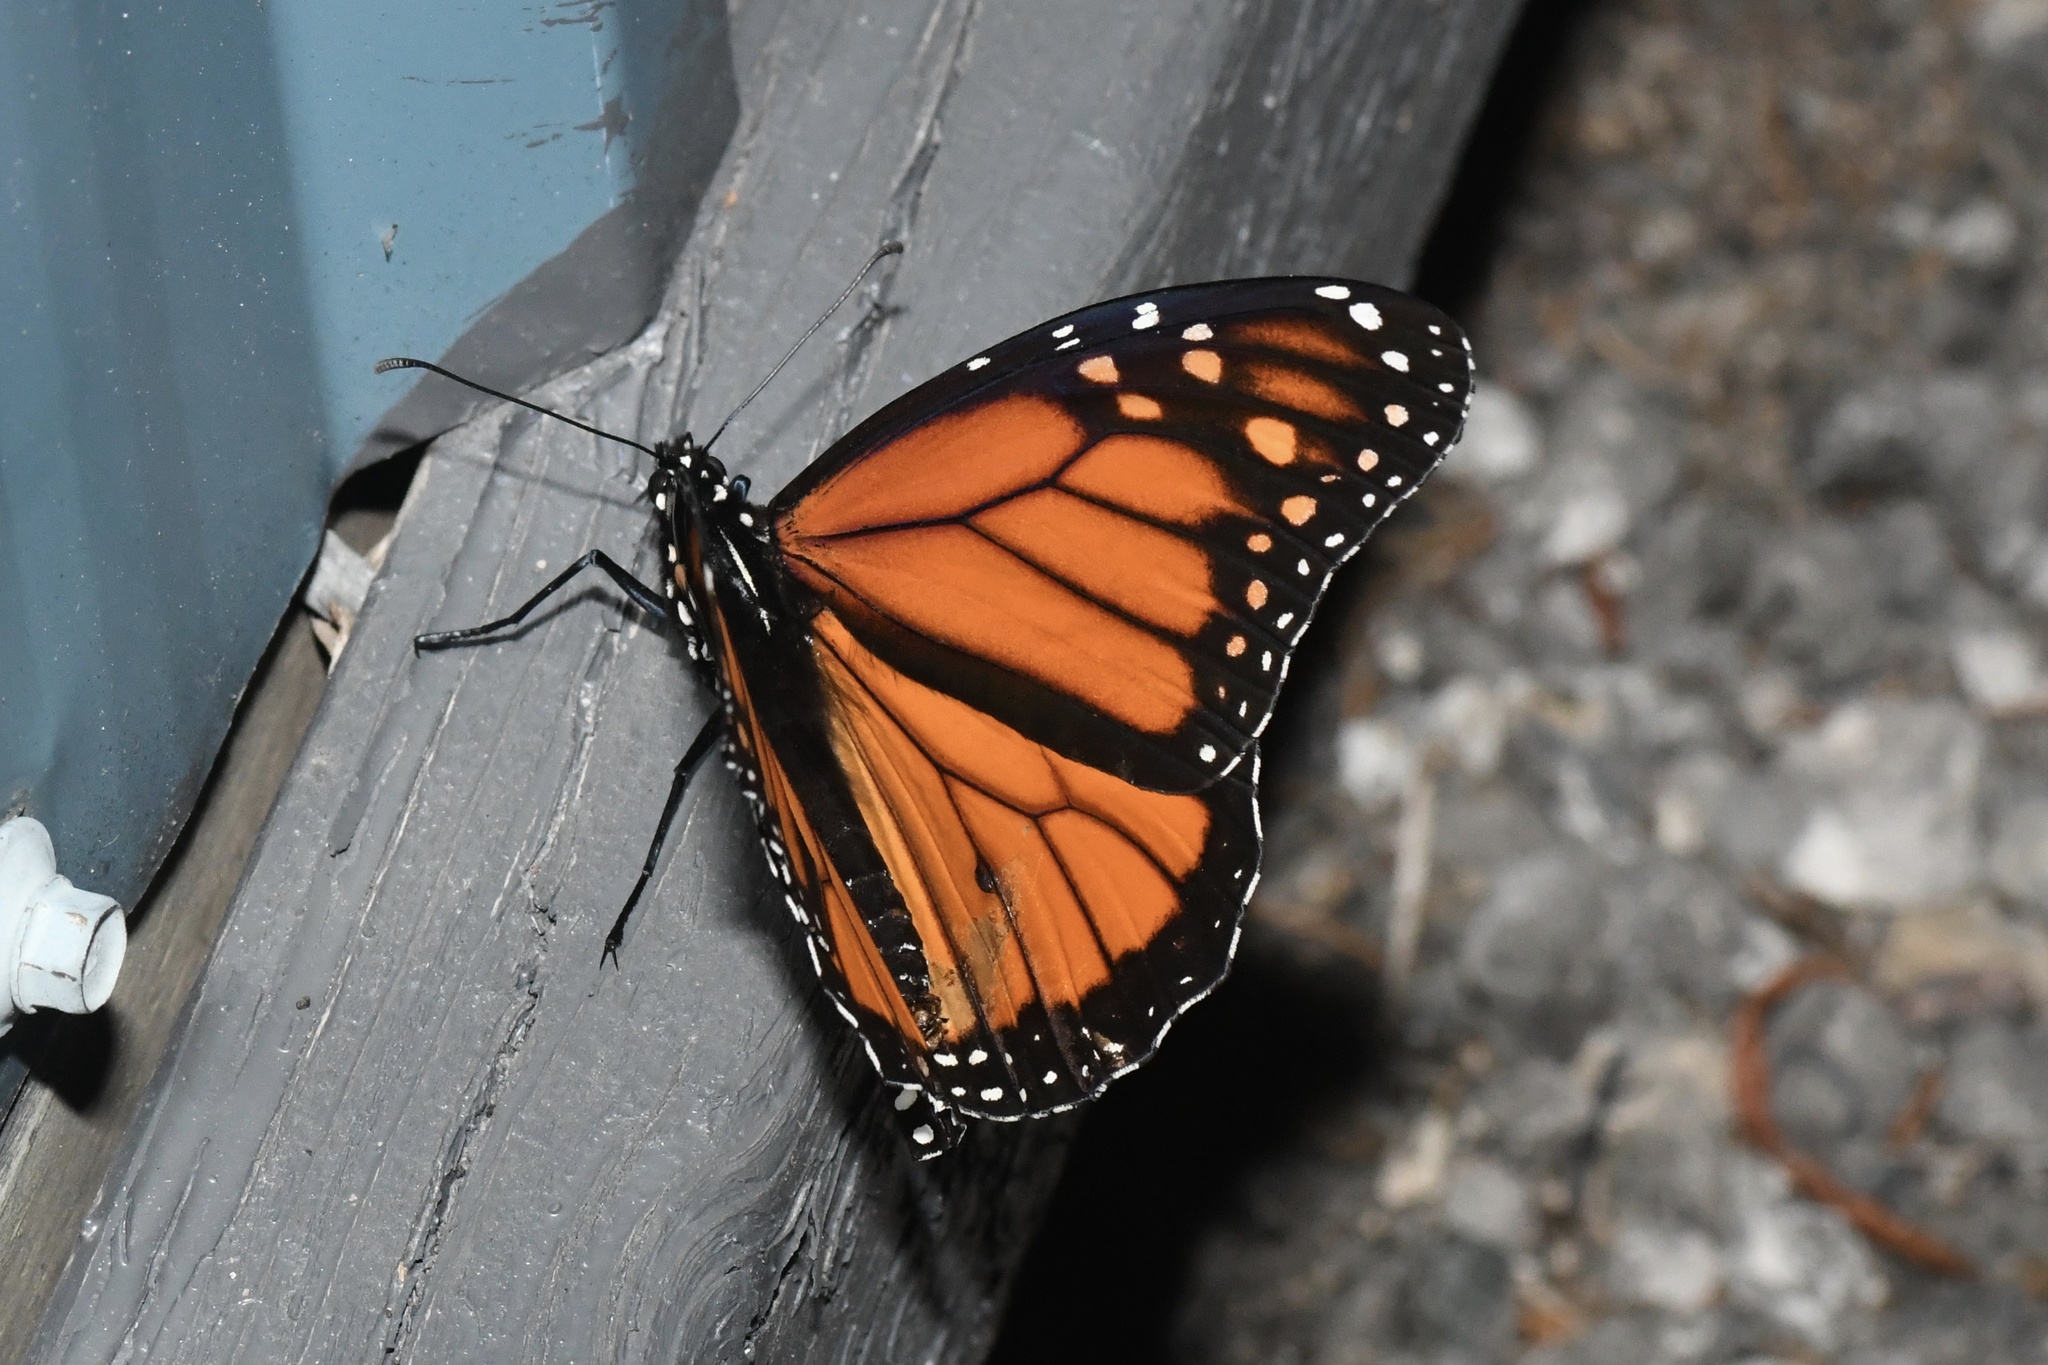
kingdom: Animalia
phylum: Arthropoda
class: Insecta
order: Lepidoptera
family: Nymphalidae
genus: Danaus
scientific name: Danaus plexippus
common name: Monarch
